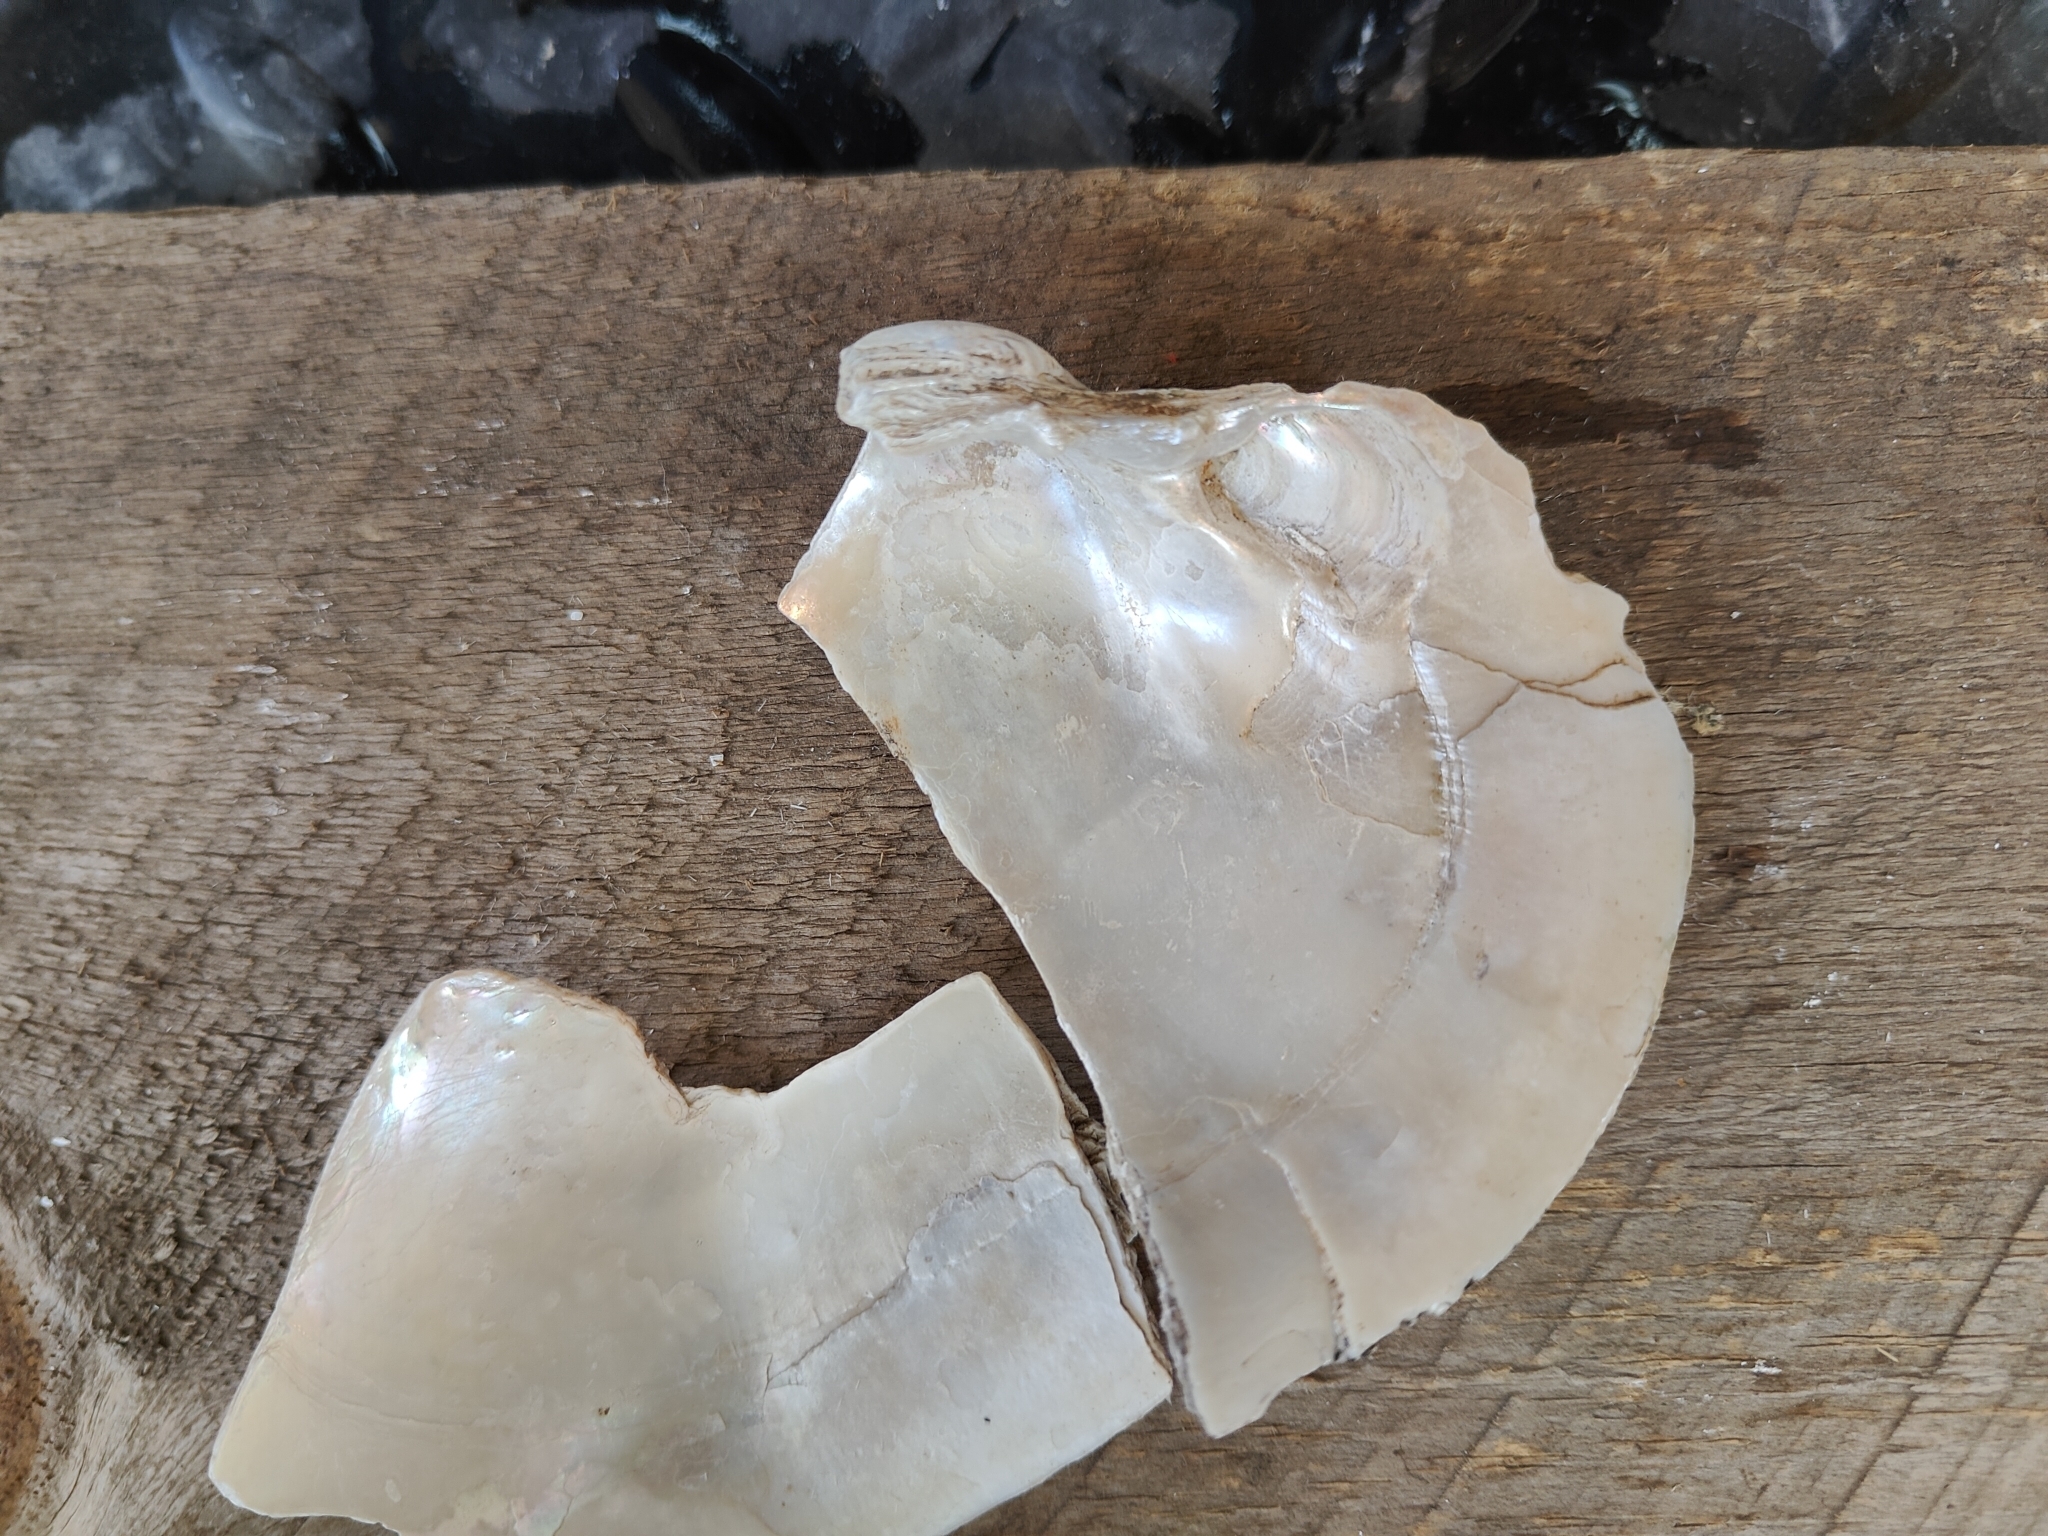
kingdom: Animalia
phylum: Mollusca
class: Bivalvia
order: Unionida
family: Unionidae
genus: Lampsilis
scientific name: Lampsilis cardium
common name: Plain pocketbook
